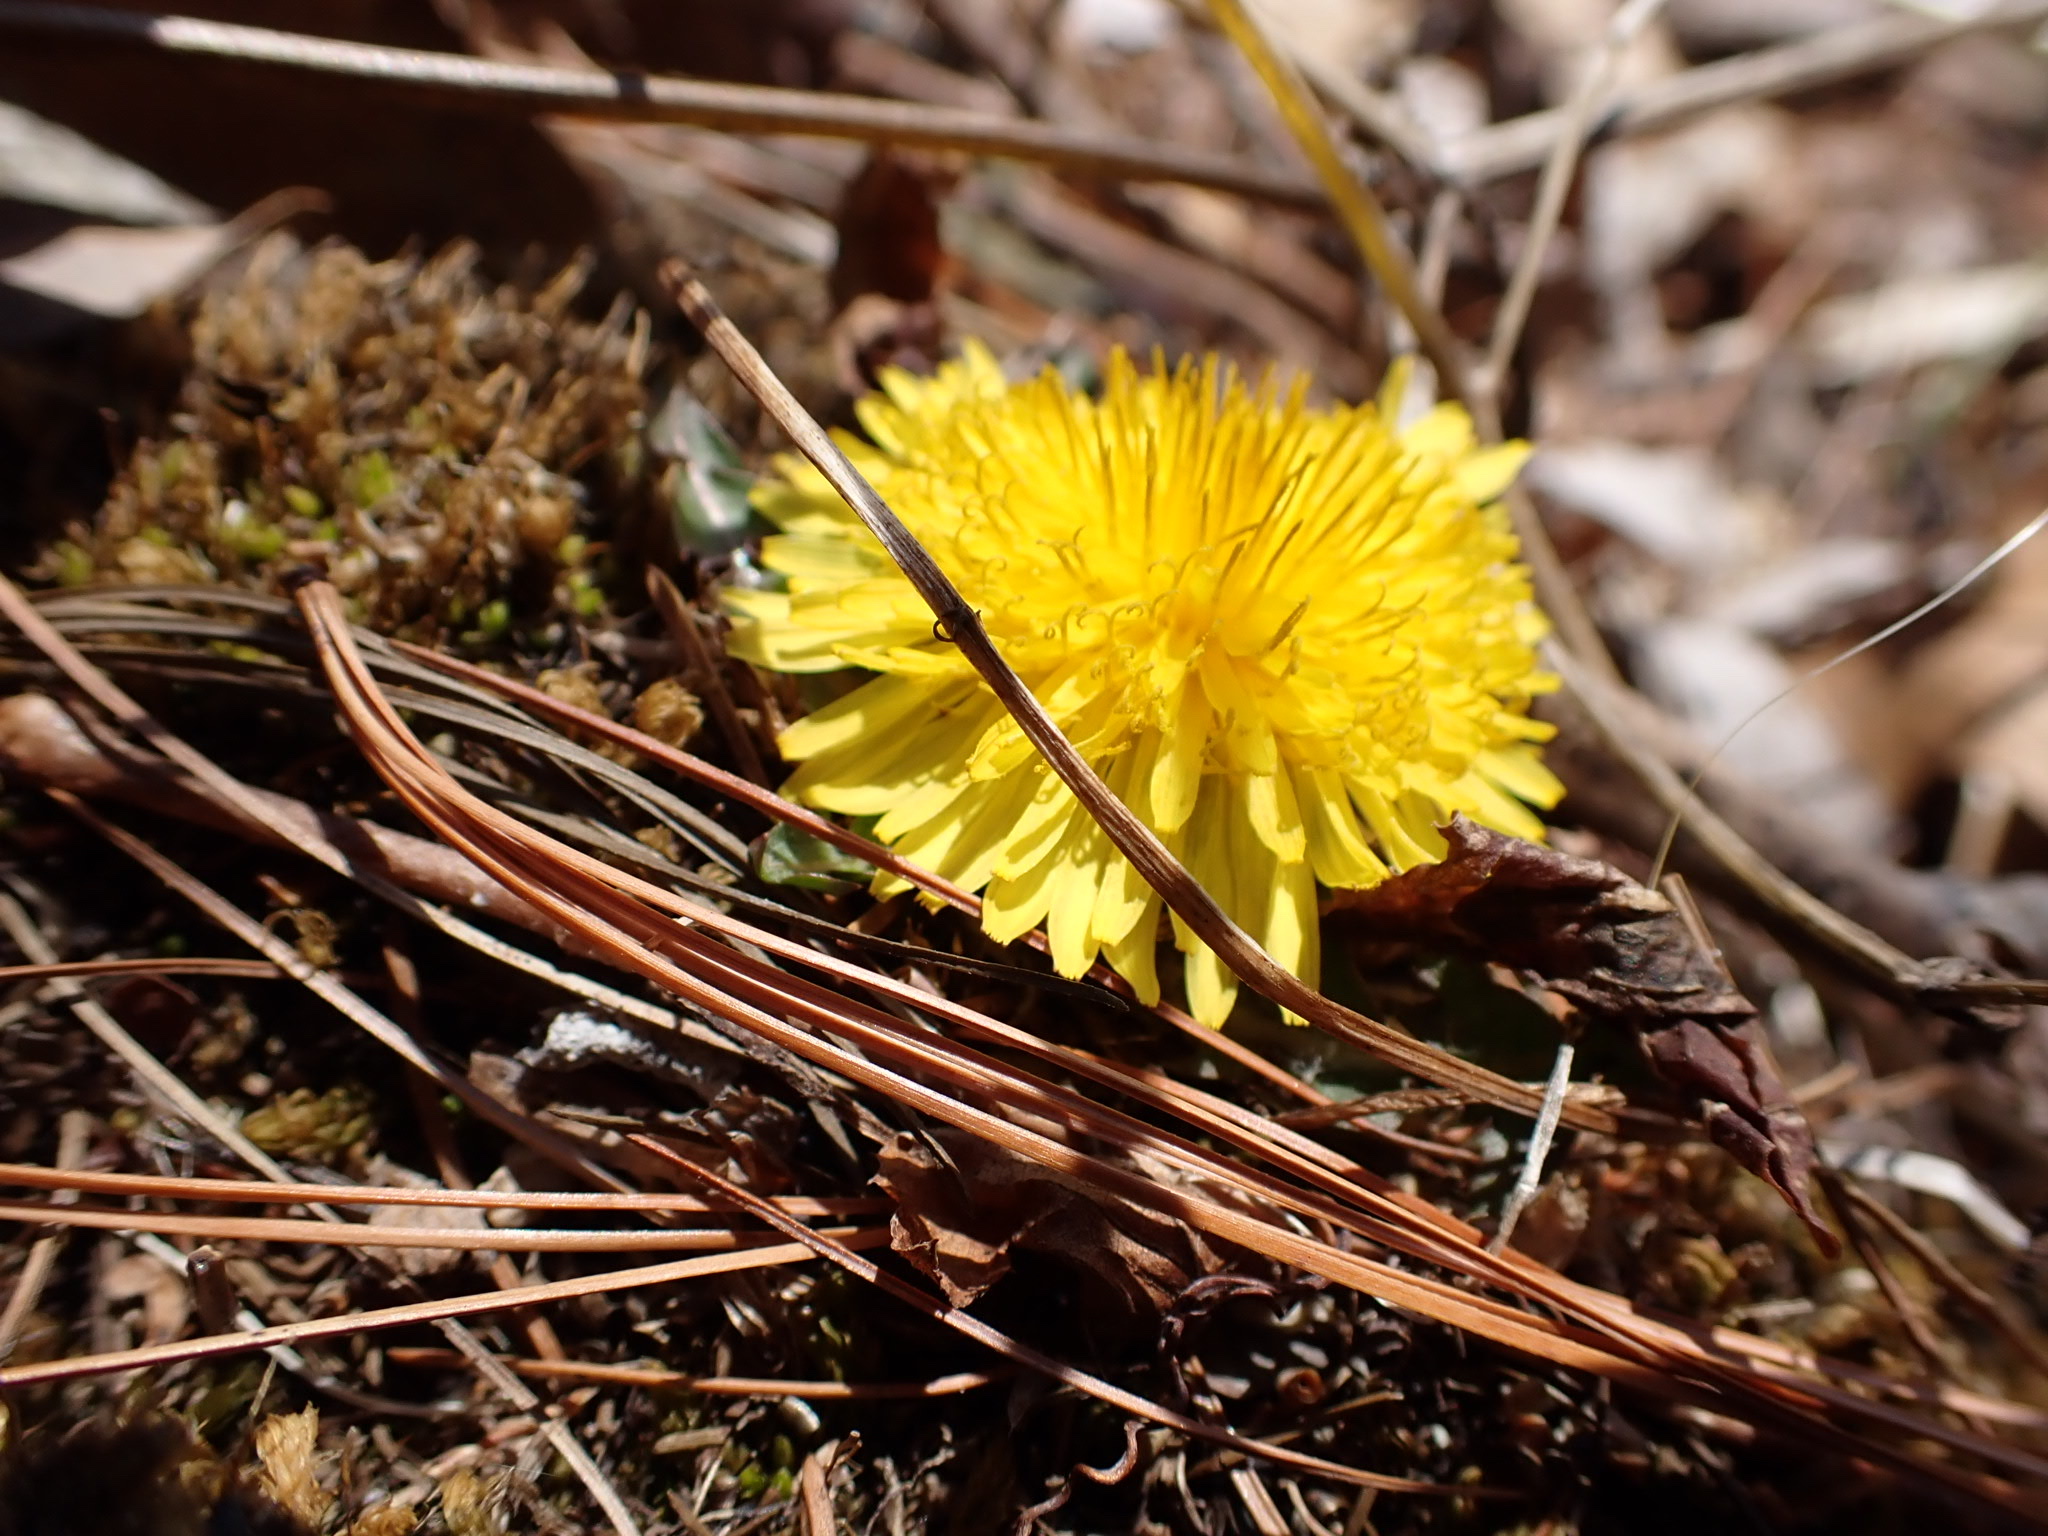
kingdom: Plantae
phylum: Tracheophyta
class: Magnoliopsida
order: Asterales
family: Asteraceae
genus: Taraxacum
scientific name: Taraxacum officinale
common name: Common dandelion
